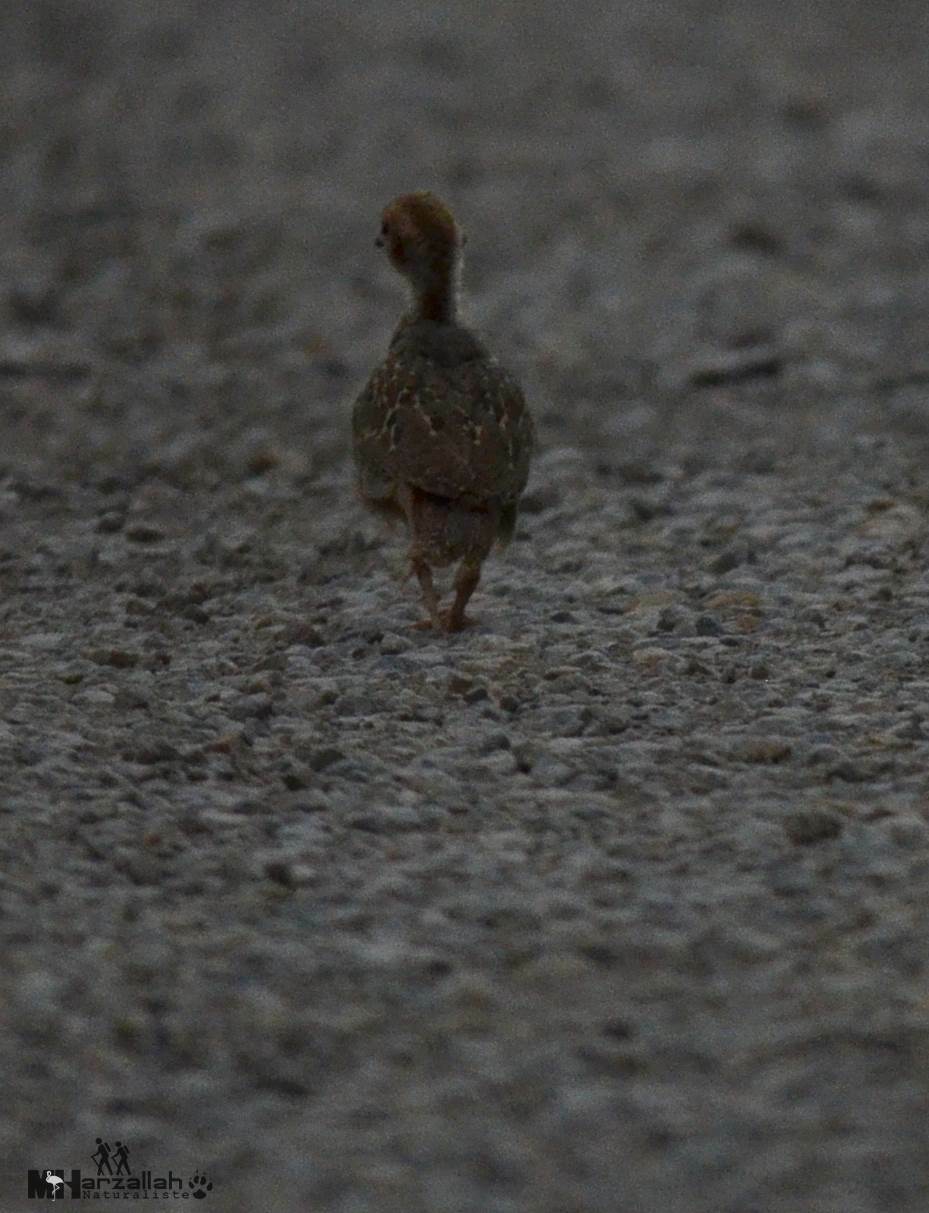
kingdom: Animalia
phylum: Chordata
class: Aves
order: Galliformes
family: Phasianidae
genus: Alectoris
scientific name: Alectoris barbara
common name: Barbary partridge
